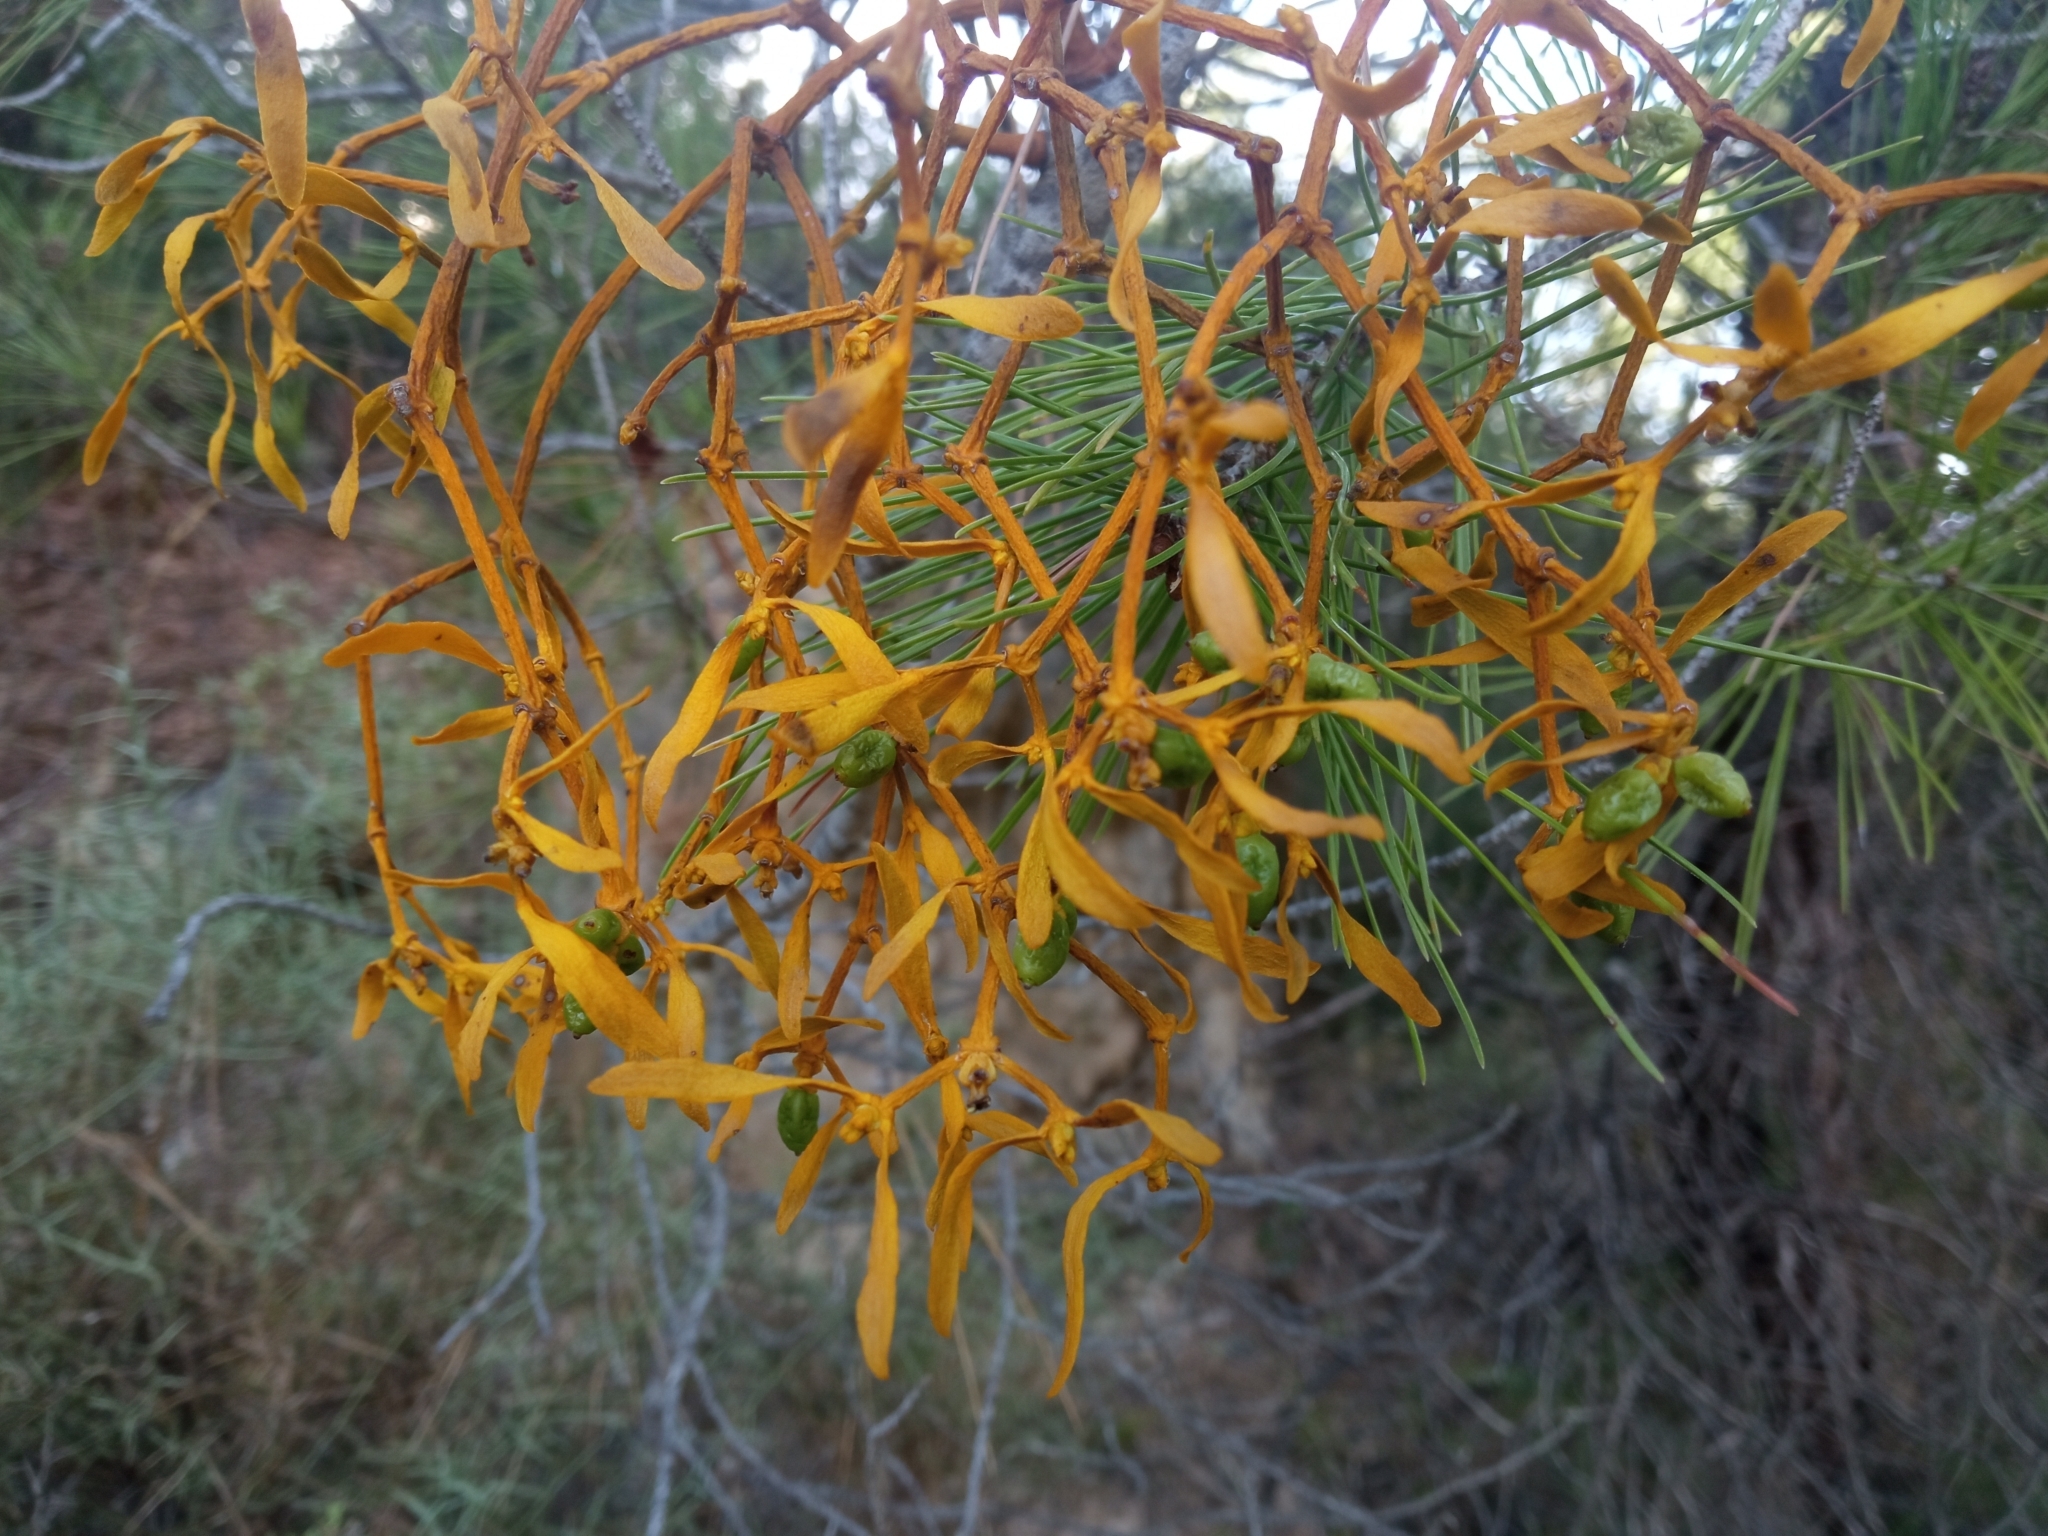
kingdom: Plantae
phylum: Tracheophyta
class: Magnoliopsida
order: Santalales
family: Viscaceae
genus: Viscum
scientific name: Viscum album
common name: Mistletoe
